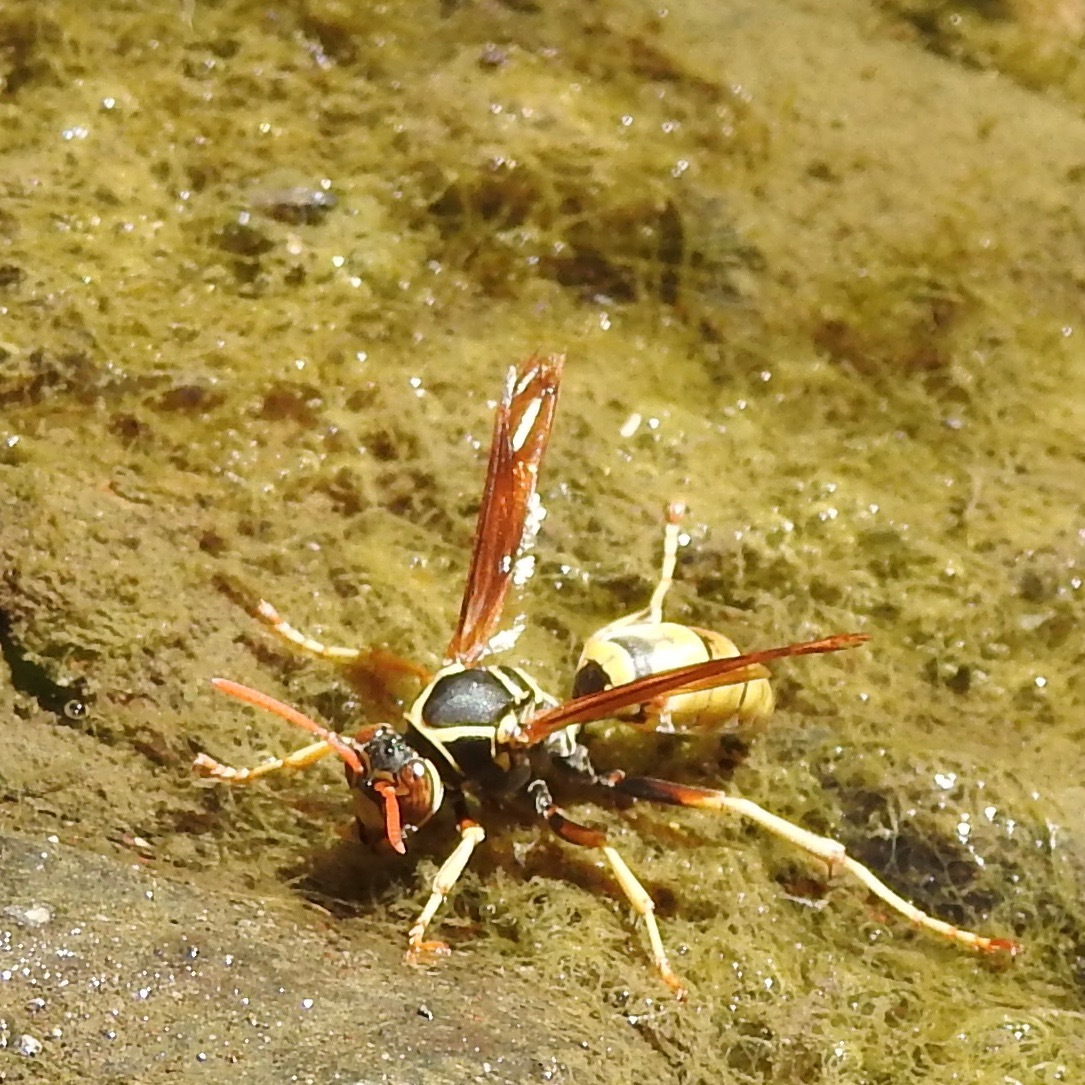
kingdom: Animalia
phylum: Arthropoda
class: Insecta
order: Hymenoptera
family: Eumenidae
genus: Polistes
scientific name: Polistes aurifer
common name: Paper wasp
